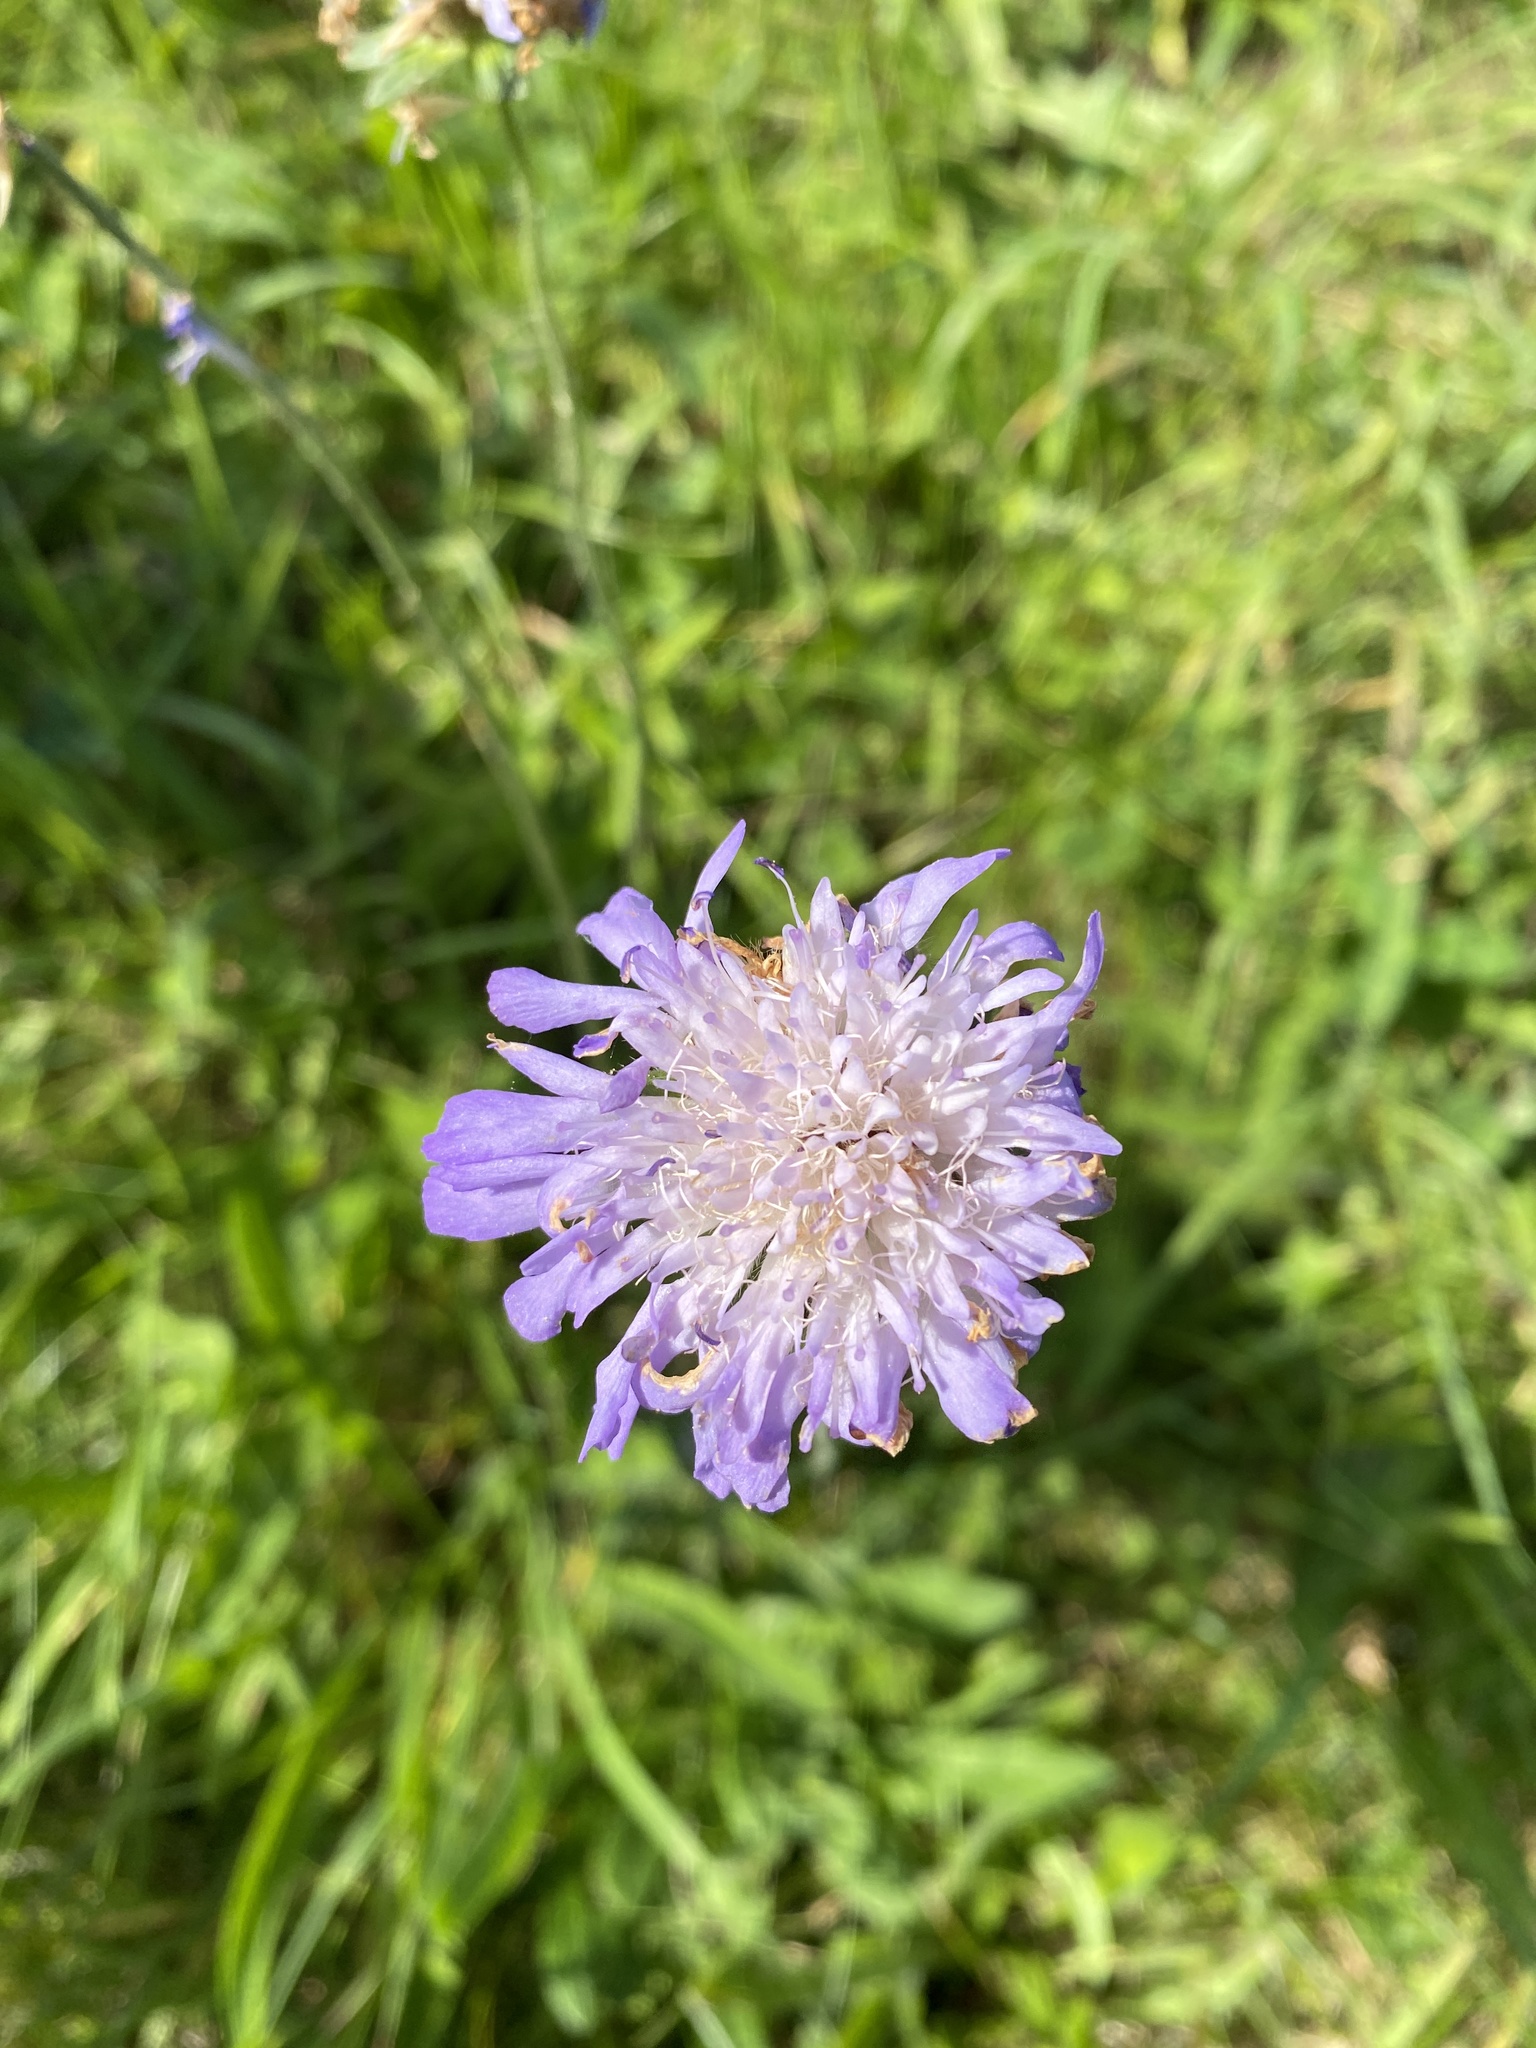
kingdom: Plantae
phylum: Tracheophyta
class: Magnoliopsida
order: Dipsacales
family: Caprifoliaceae
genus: Knautia
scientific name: Knautia arvensis
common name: Field scabiosa
